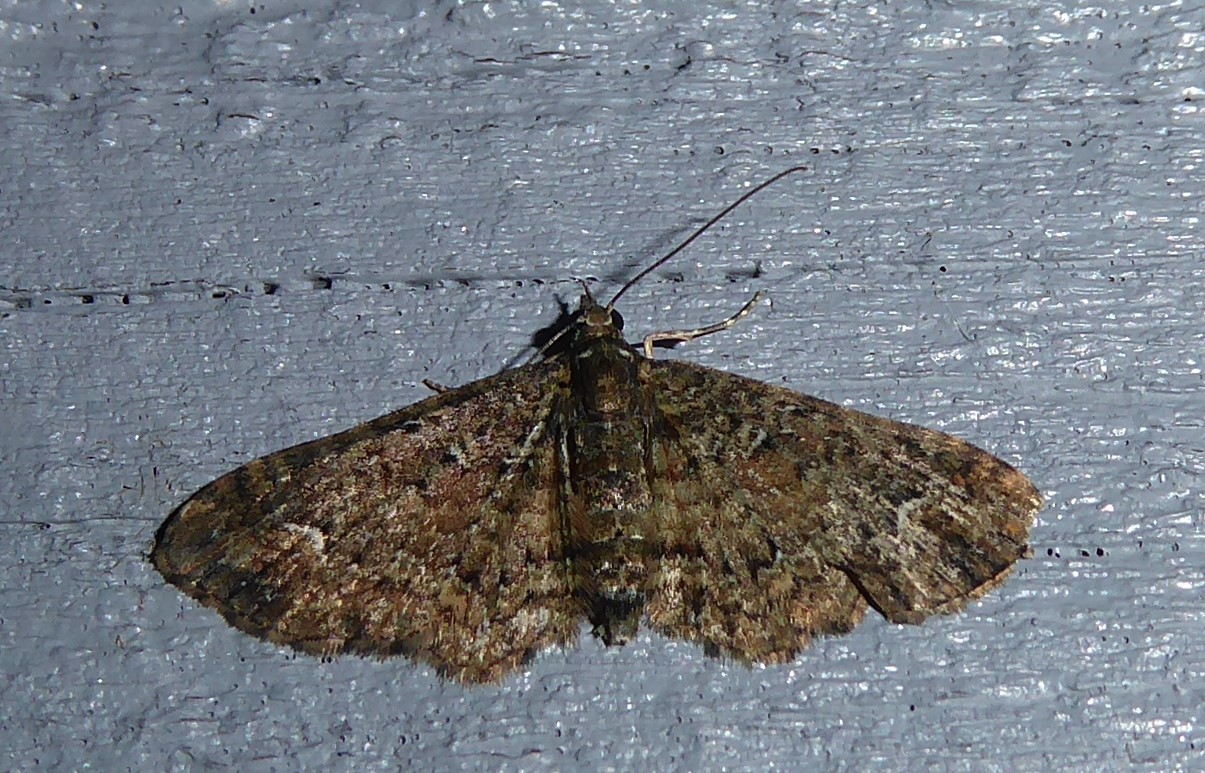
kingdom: Animalia
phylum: Arthropoda
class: Insecta
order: Lepidoptera
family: Geometridae
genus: Pasiphilodes
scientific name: Pasiphilodes testulata
